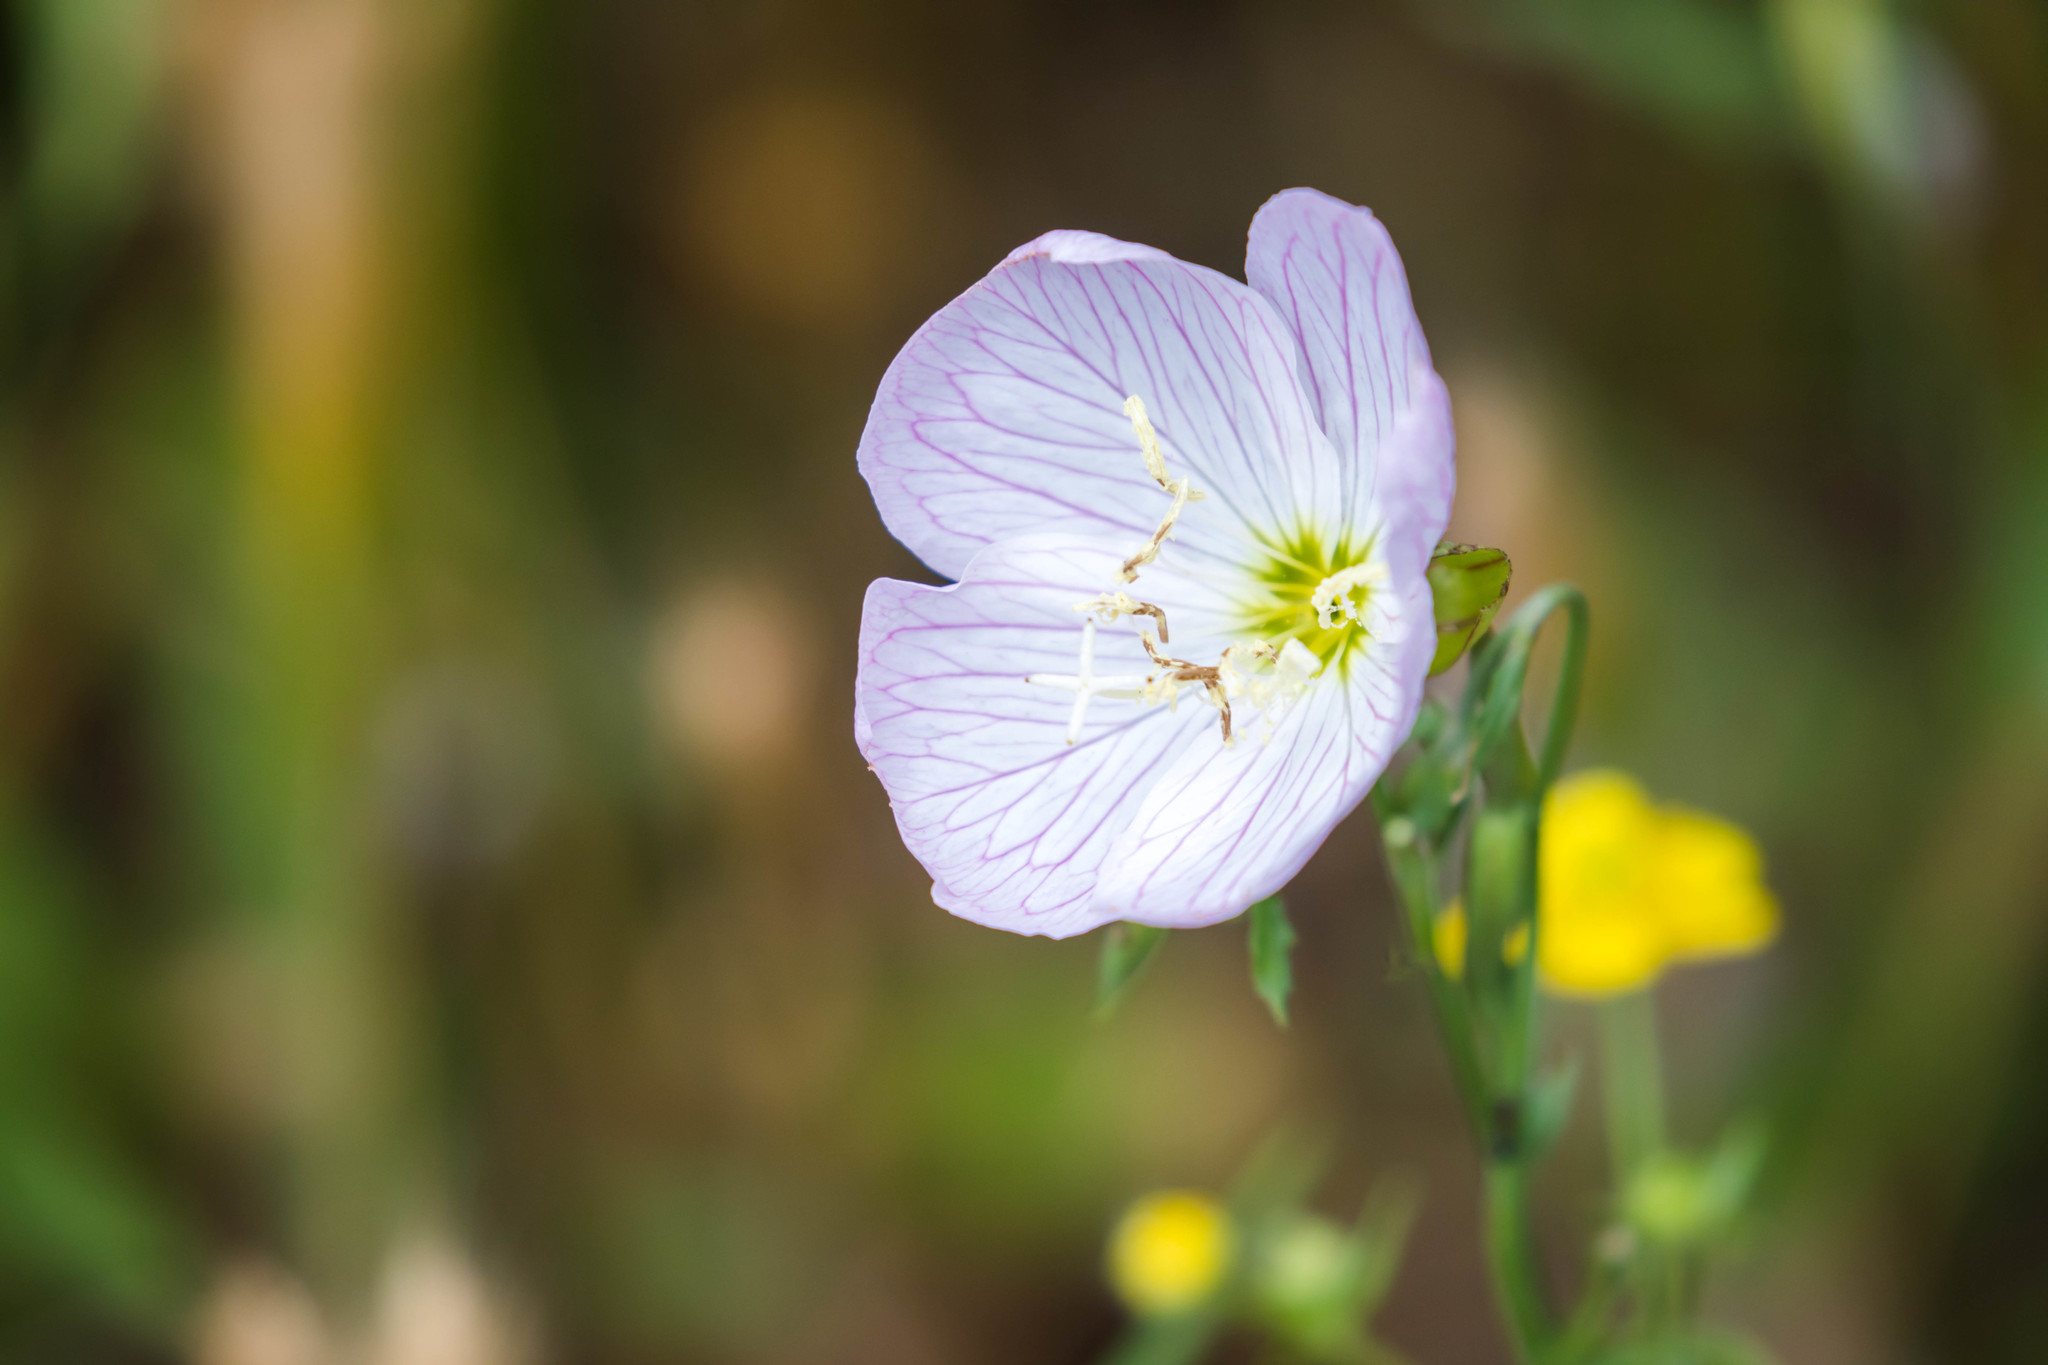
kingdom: Plantae
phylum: Tracheophyta
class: Magnoliopsida
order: Myrtales
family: Onagraceae
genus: Oenothera
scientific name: Oenothera speciosa
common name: White evening-primrose
